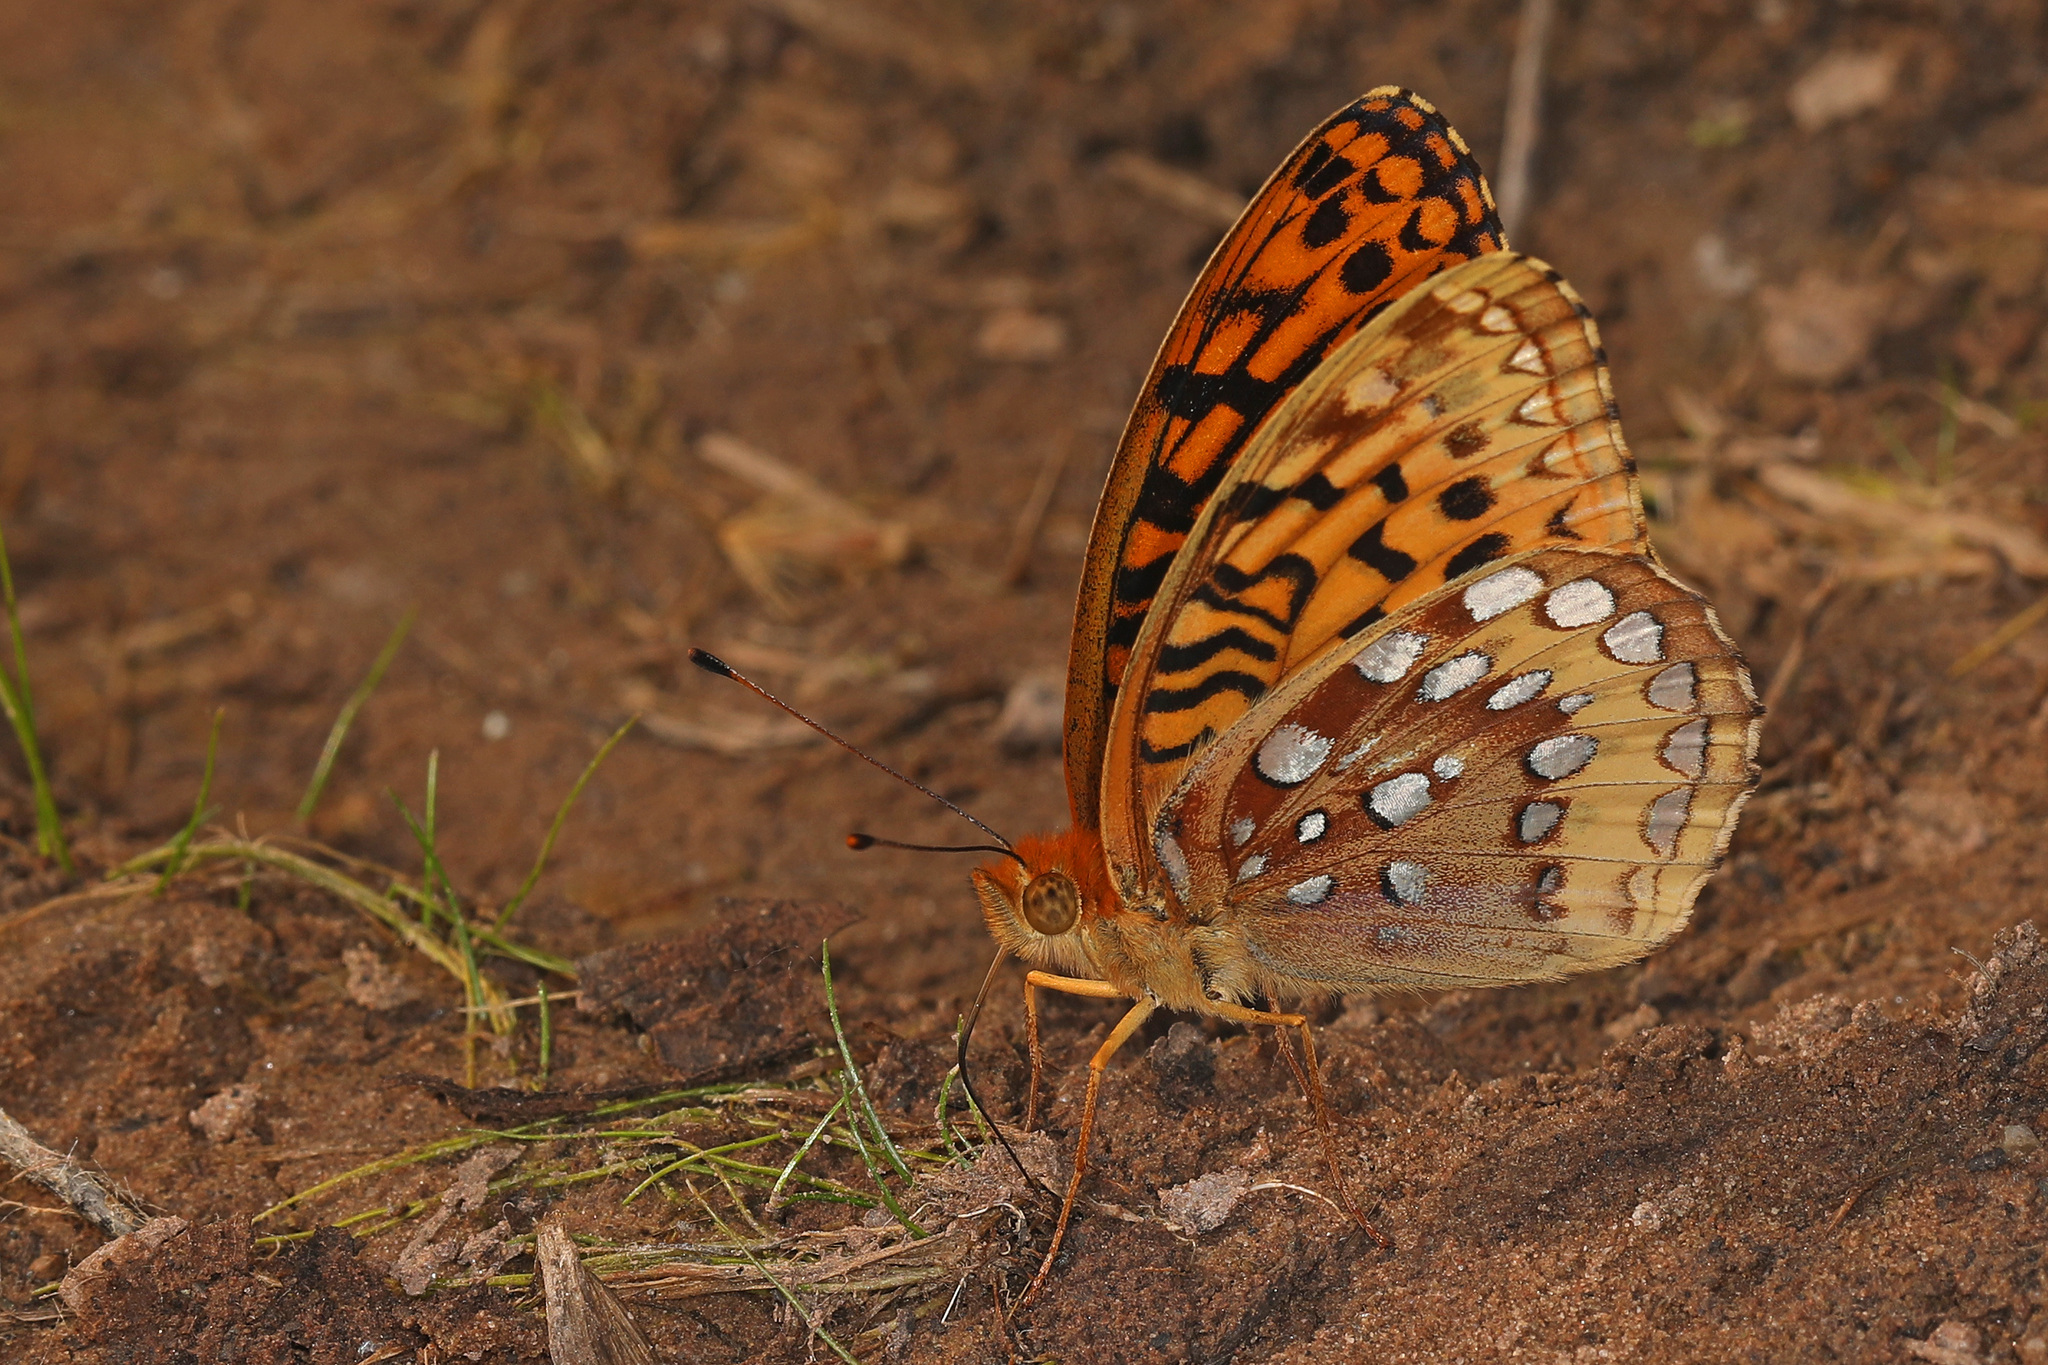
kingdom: Animalia
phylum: Arthropoda
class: Insecta
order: Lepidoptera
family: Nymphalidae
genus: Speyeria
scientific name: Speyeria cybele
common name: Great spangled fritillary
